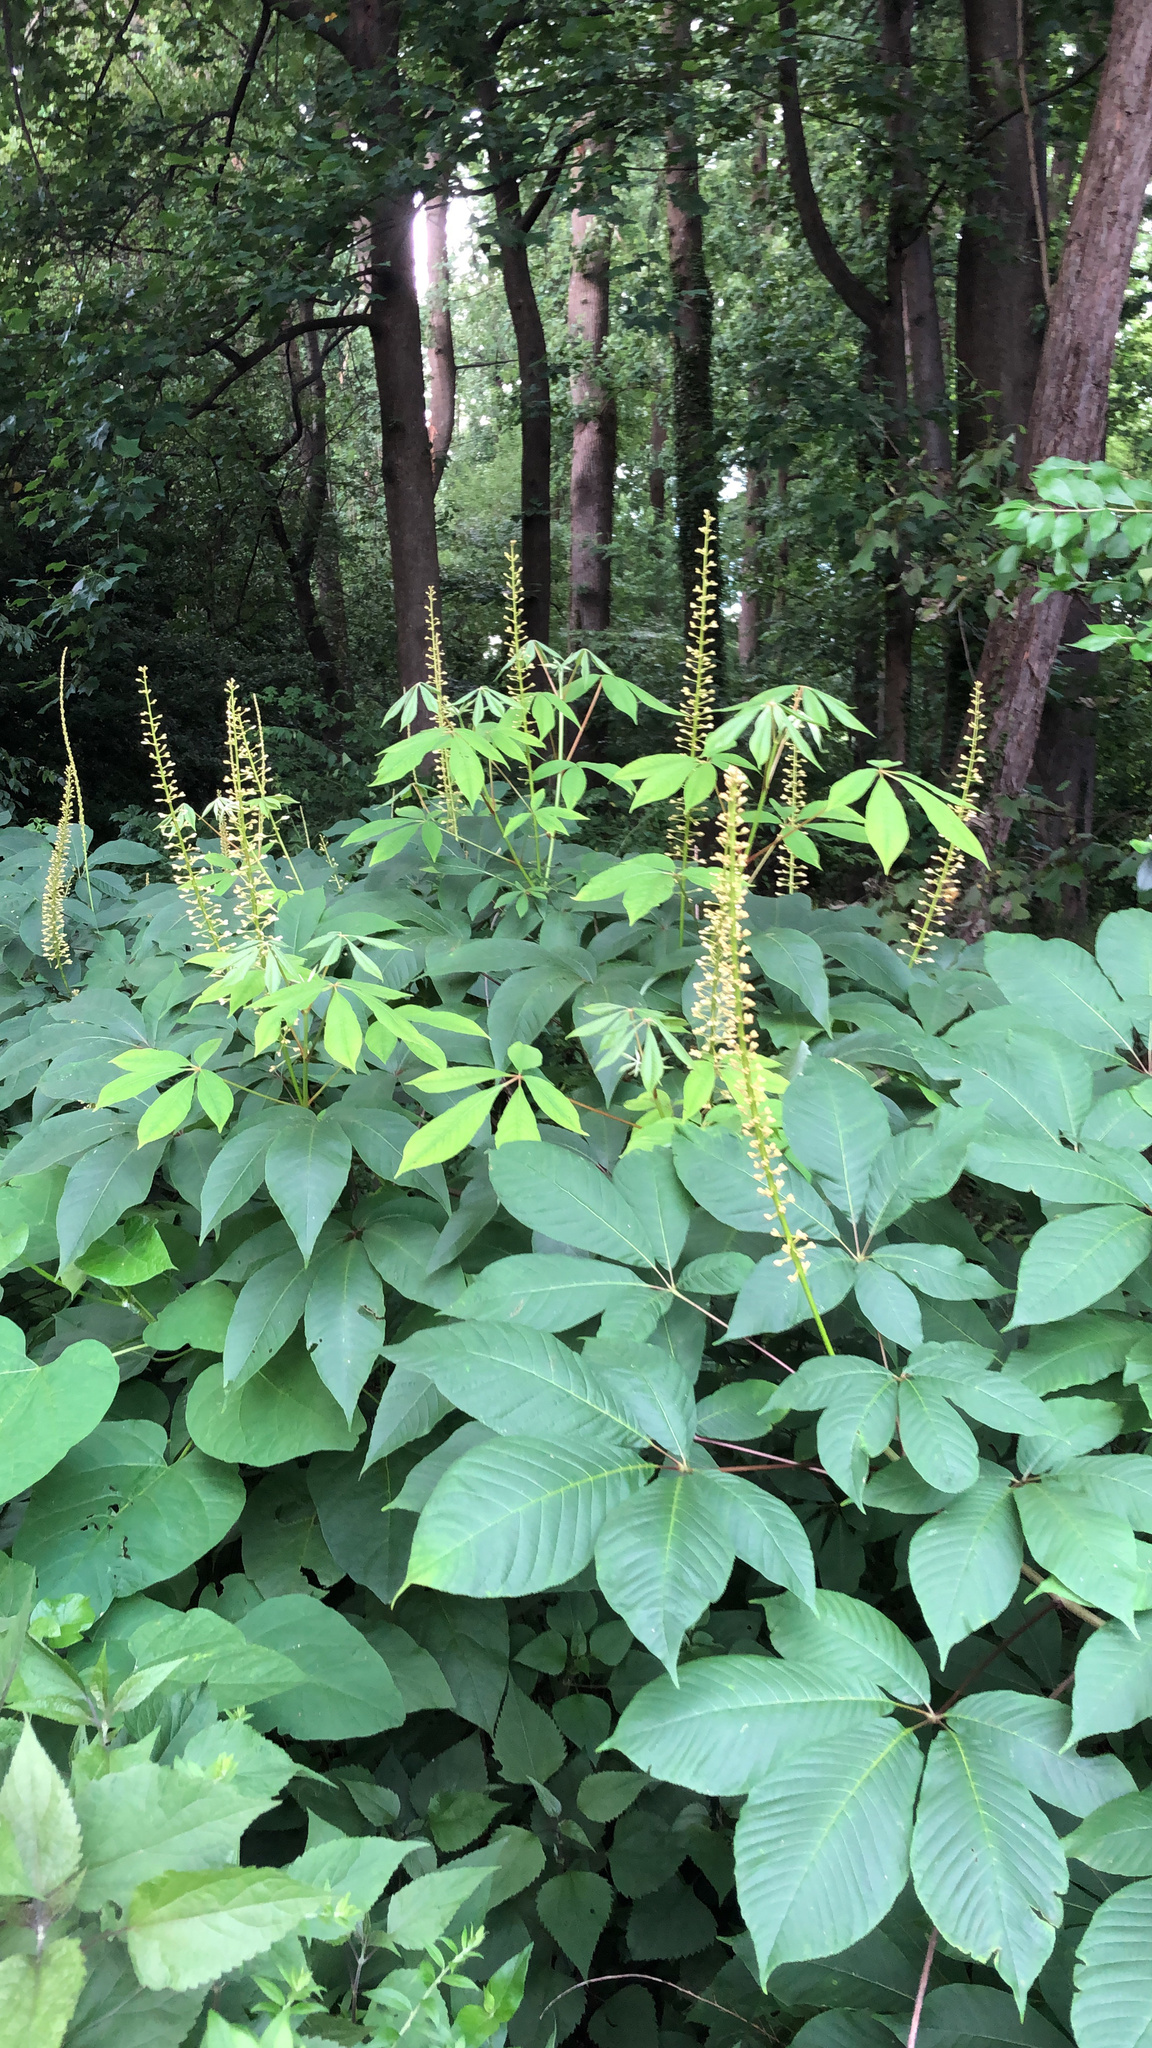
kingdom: Plantae
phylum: Tracheophyta
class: Magnoliopsida
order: Sapindales
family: Sapindaceae
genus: Aesculus
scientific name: Aesculus parviflora
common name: Bottlebrush buckeye
